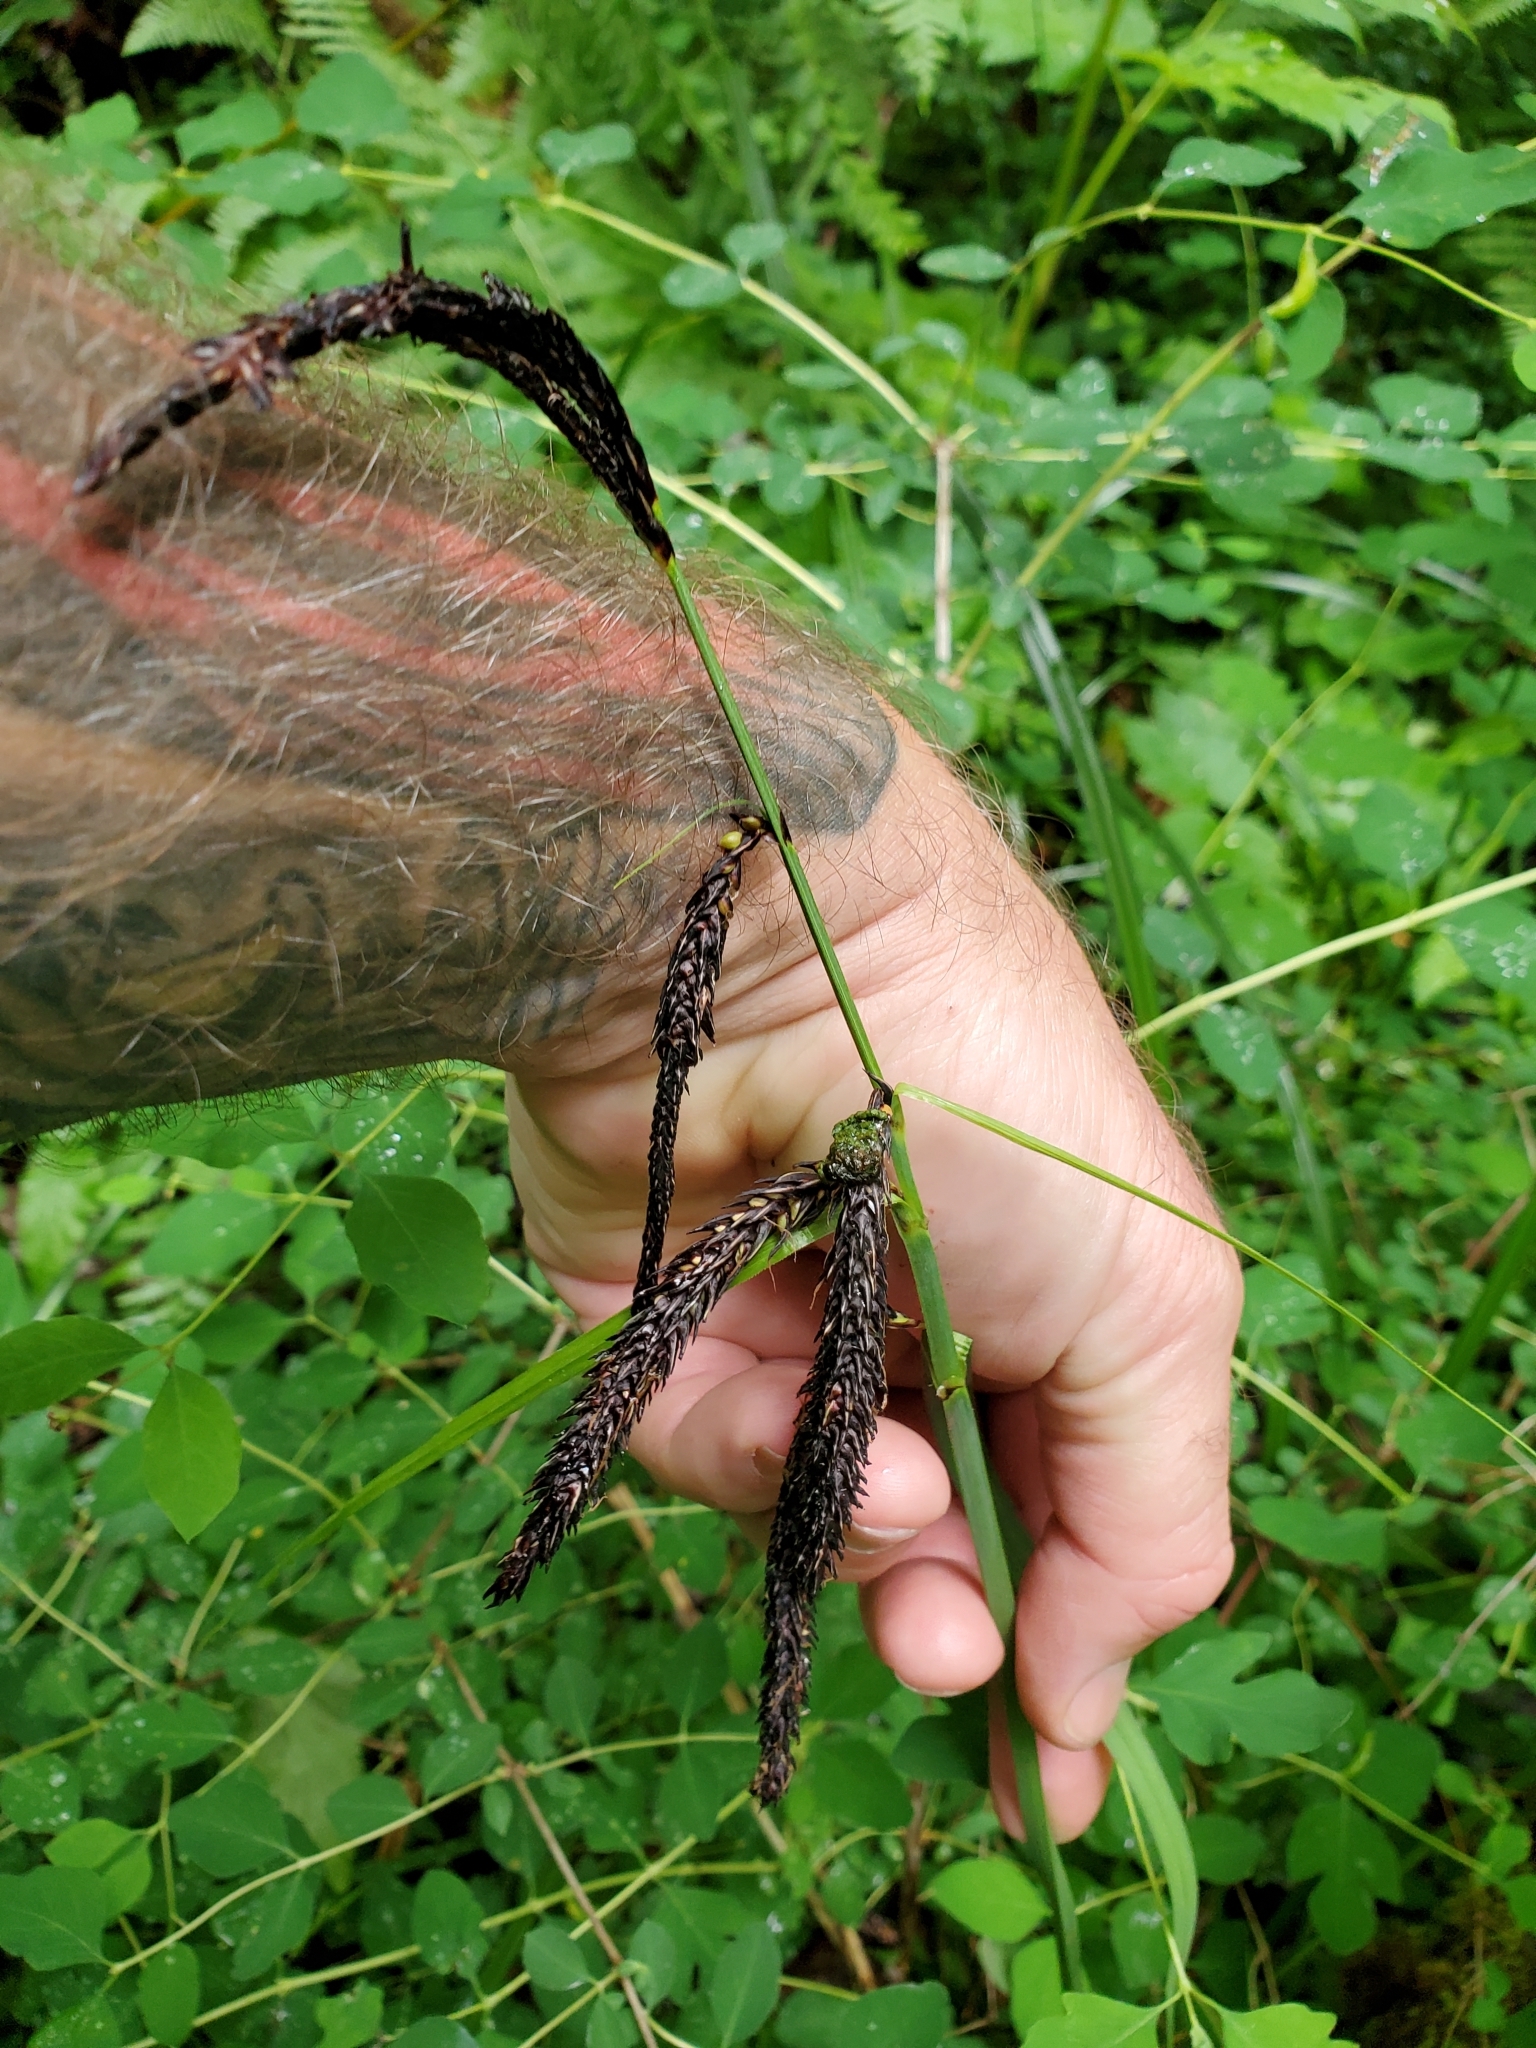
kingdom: Plantae
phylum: Tracheophyta
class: Liliopsida
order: Poales
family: Cyperaceae
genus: Carex
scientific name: Carex obnupta
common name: Slough sedge
